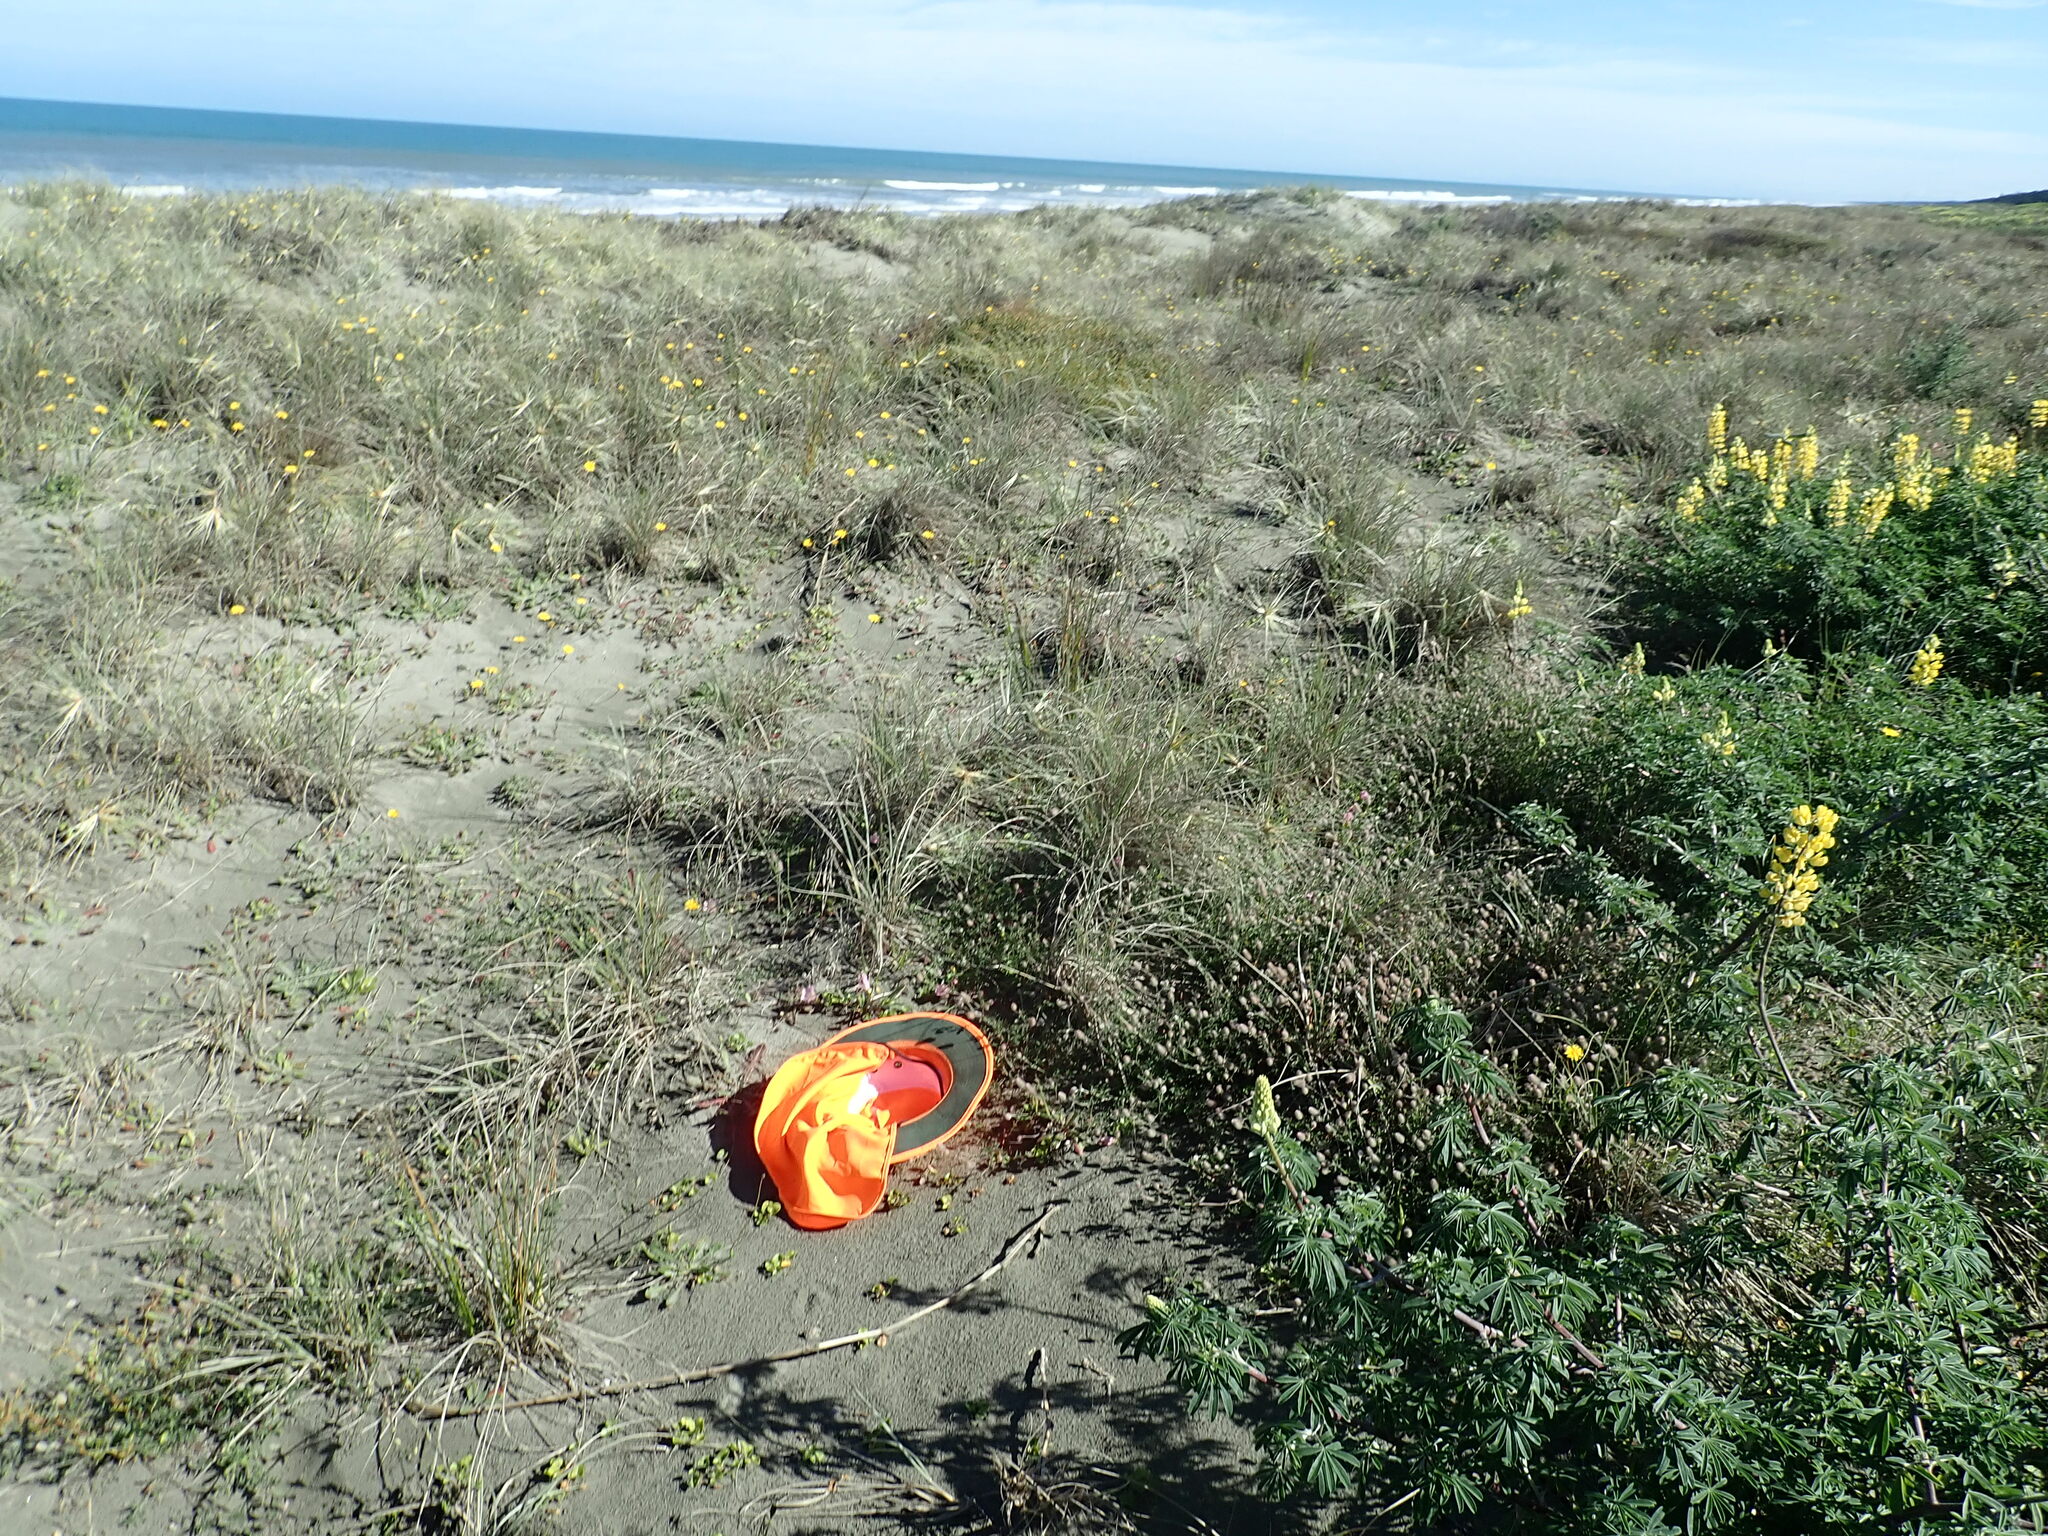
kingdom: Plantae
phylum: Tracheophyta
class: Magnoliopsida
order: Solanales
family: Convolvulaceae
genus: Calystegia
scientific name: Calystegia soldanella
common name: Sea bindweed
